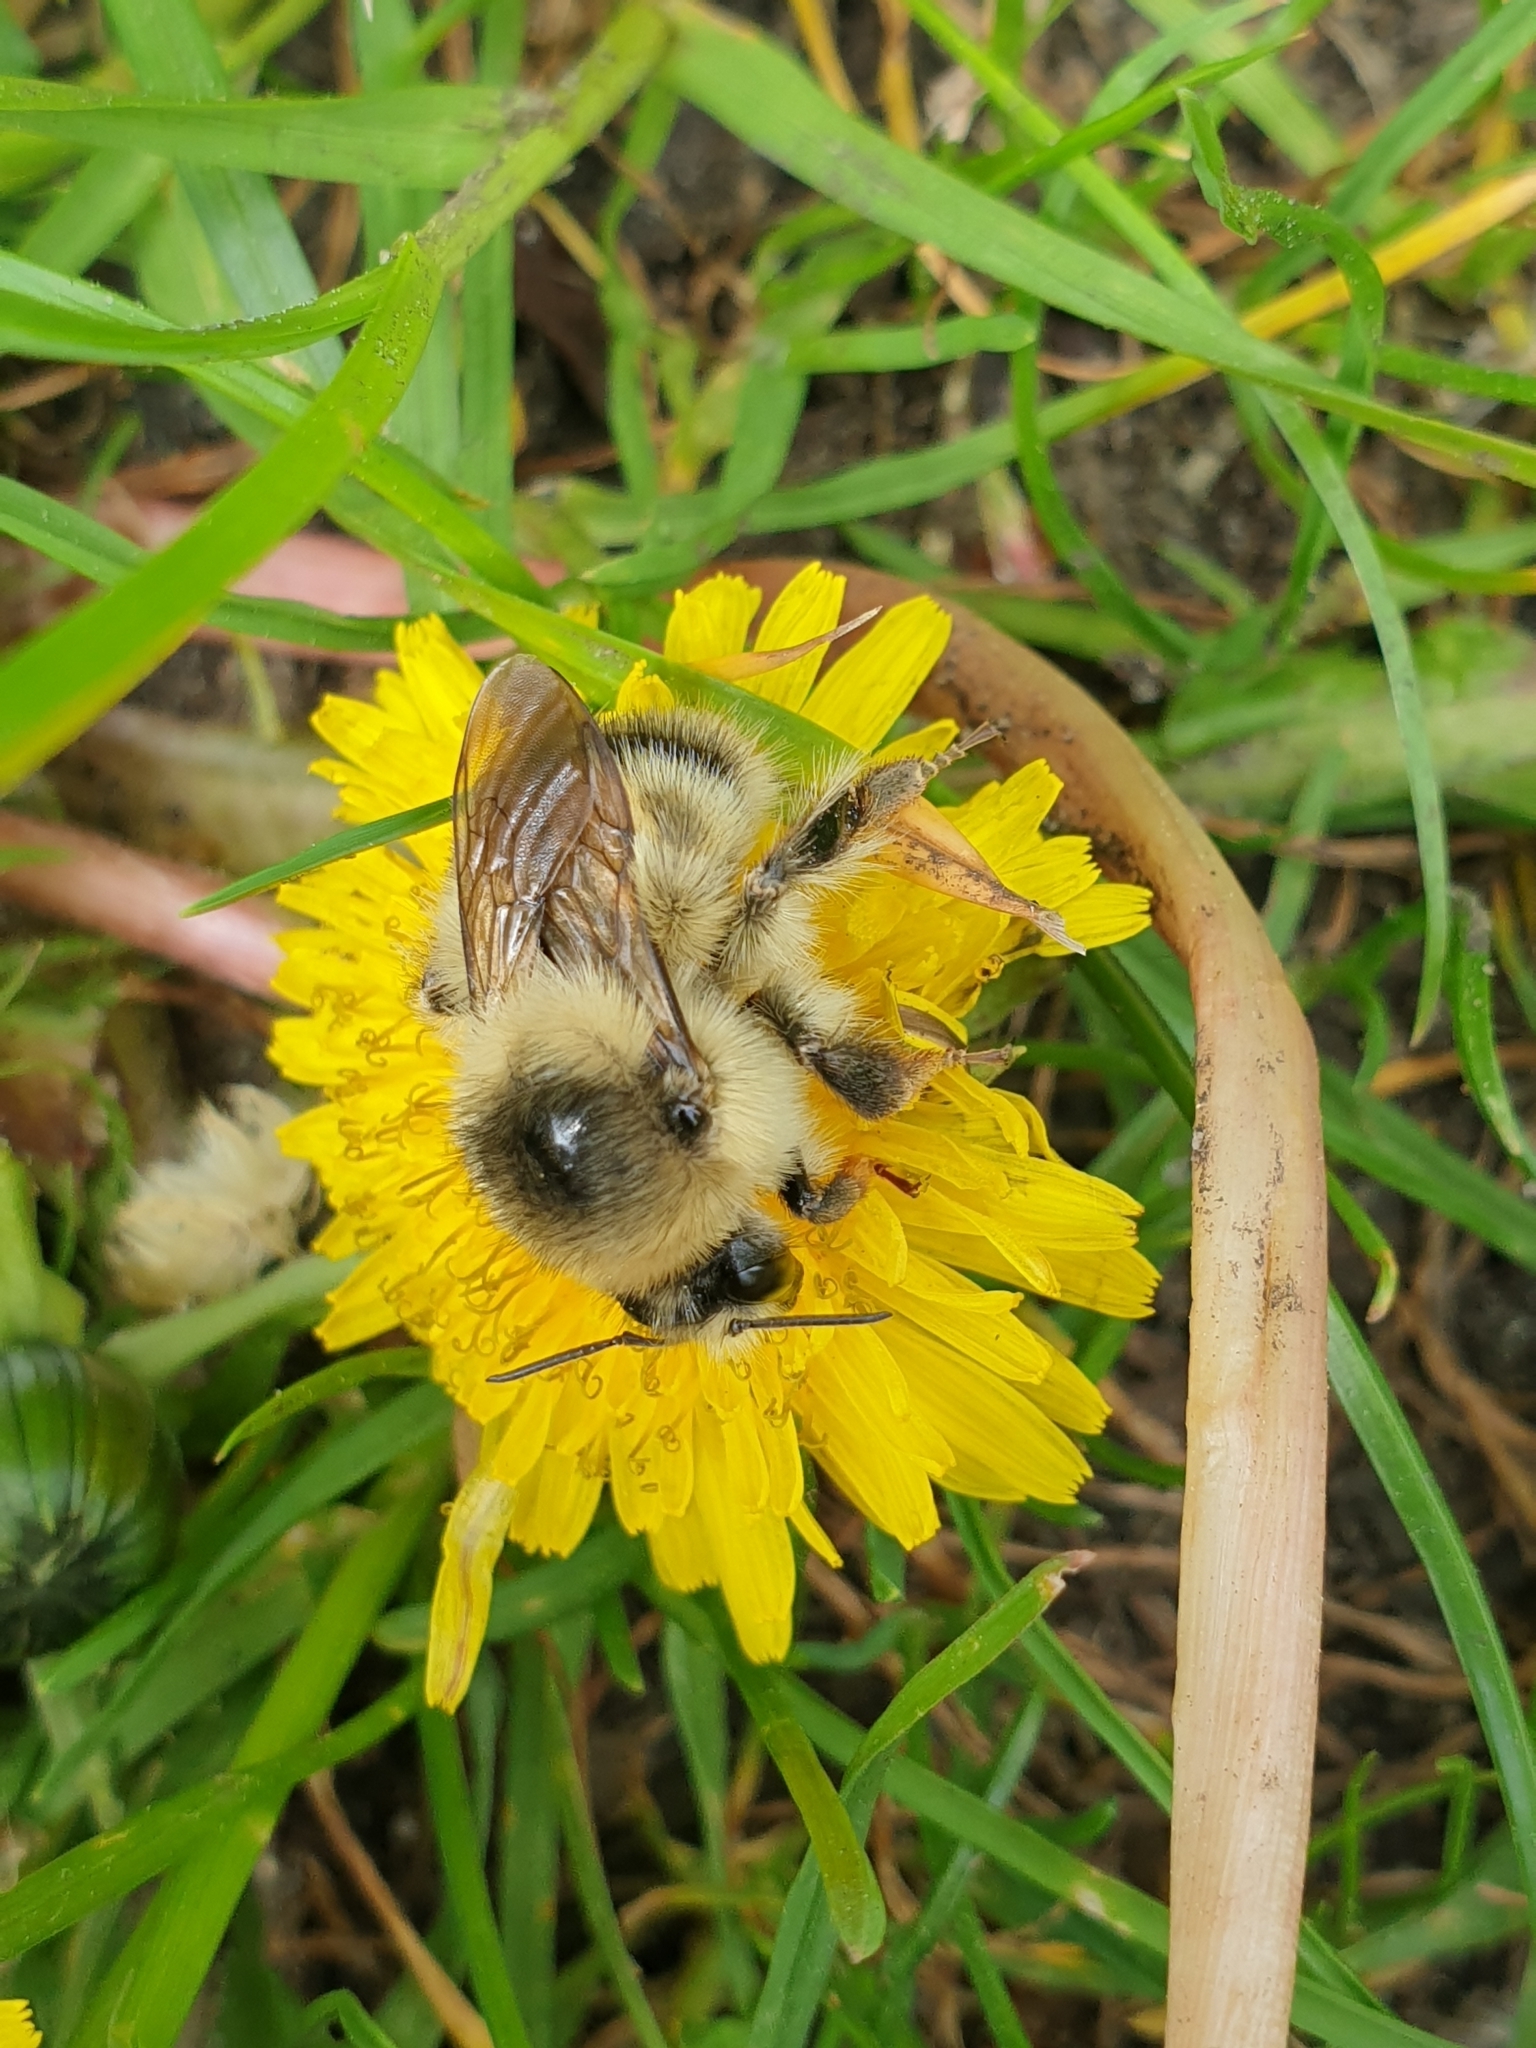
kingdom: Animalia
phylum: Arthropoda
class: Insecta
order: Hymenoptera
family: Apidae
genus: Bombus
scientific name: Bombus sylvarum
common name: Shrill carder bee
